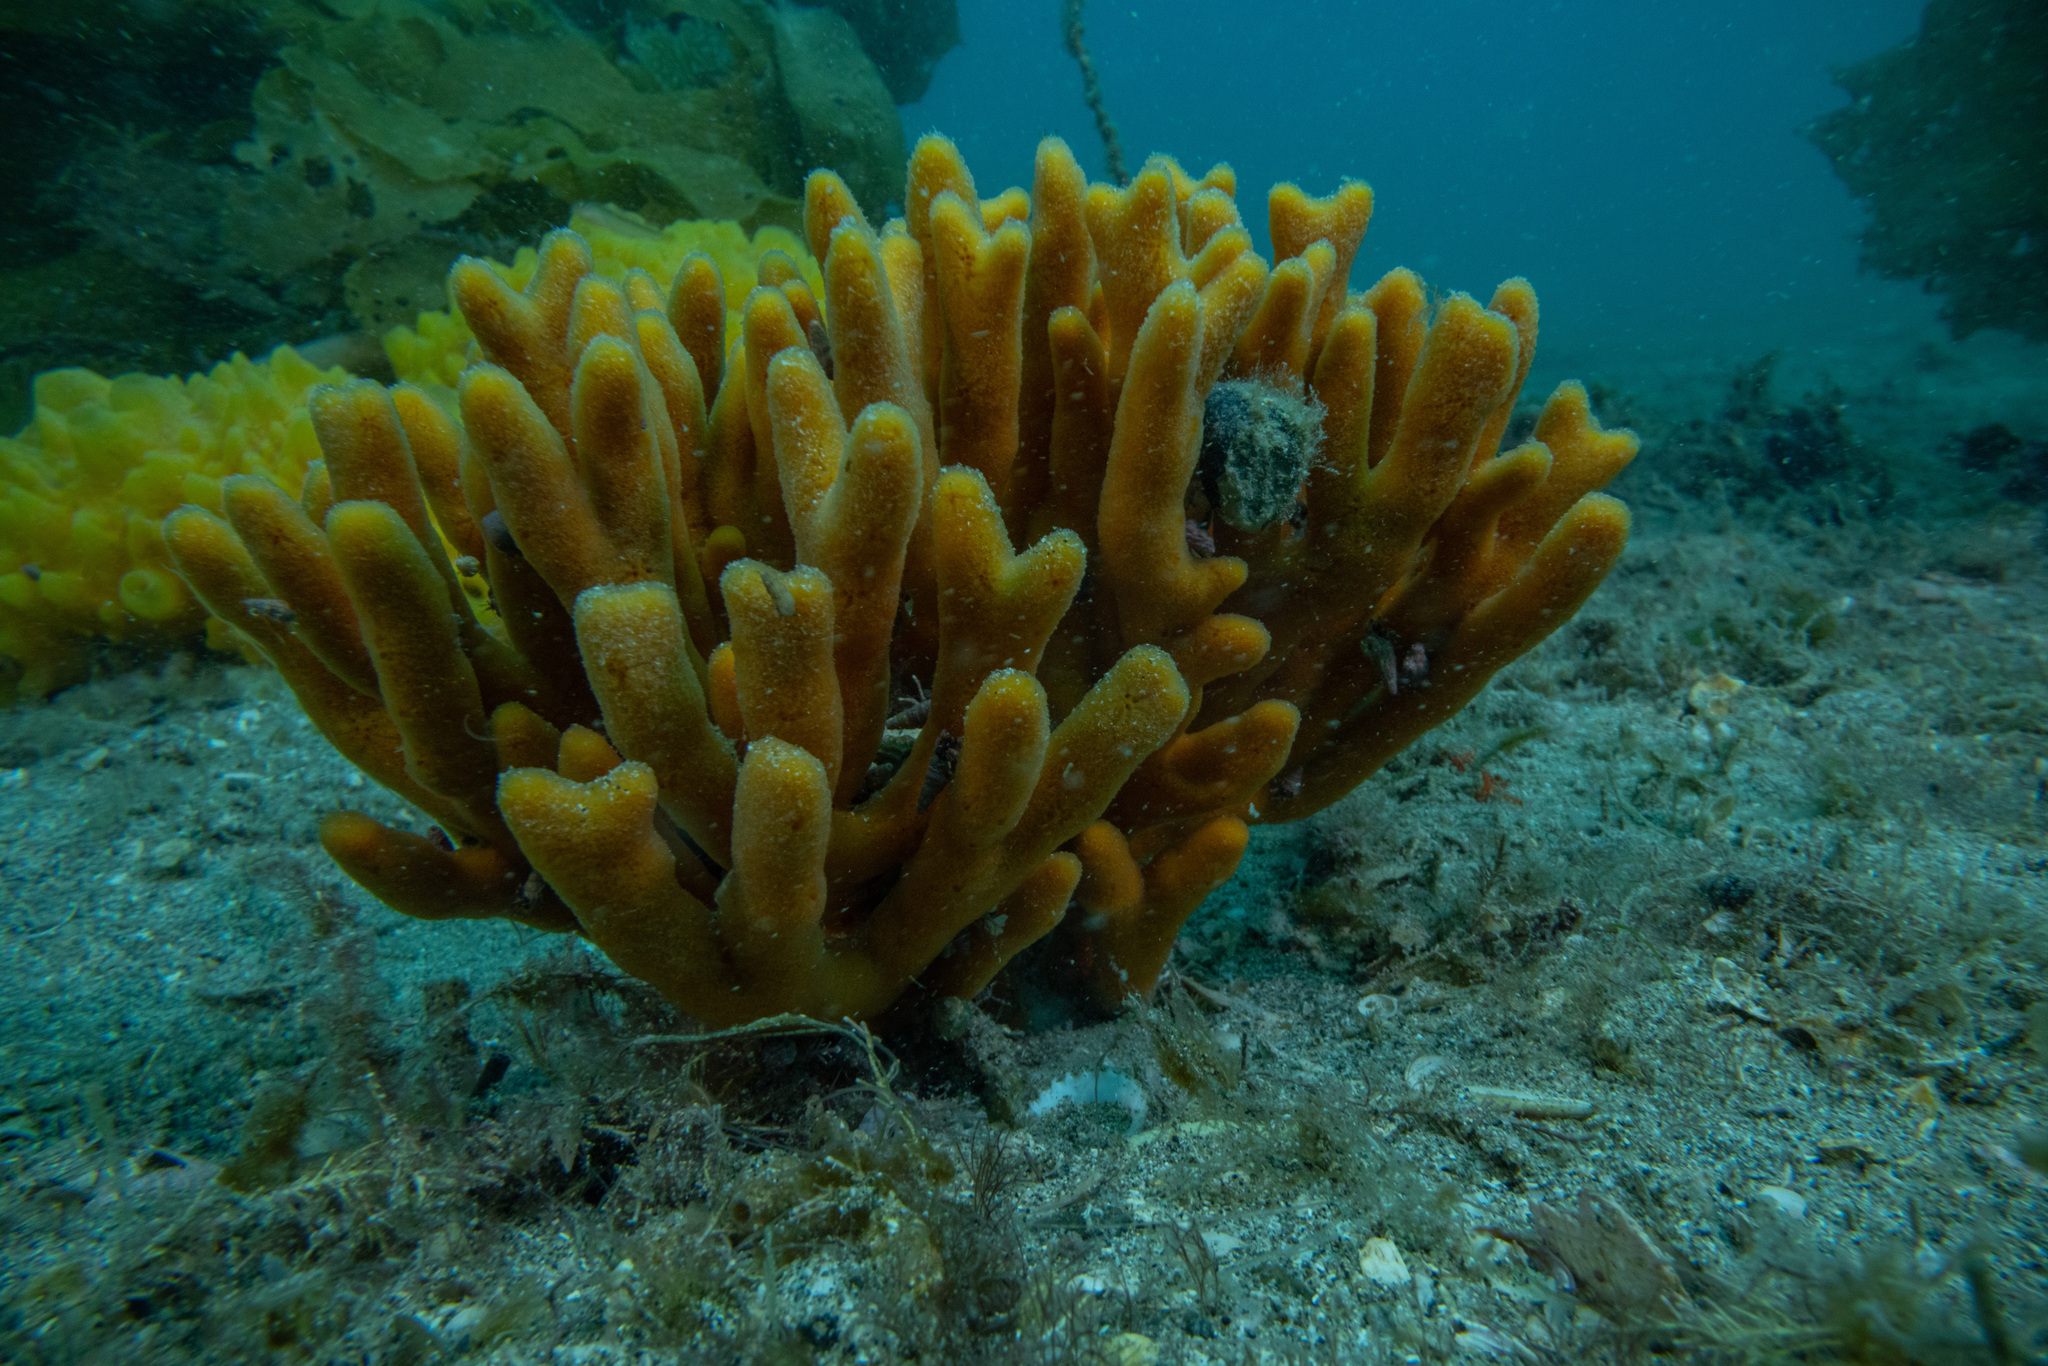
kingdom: Animalia
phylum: Porifera
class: Demospongiae
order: Axinellida
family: Raspailiidae
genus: Raspailia
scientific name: Raspailia topsenti
